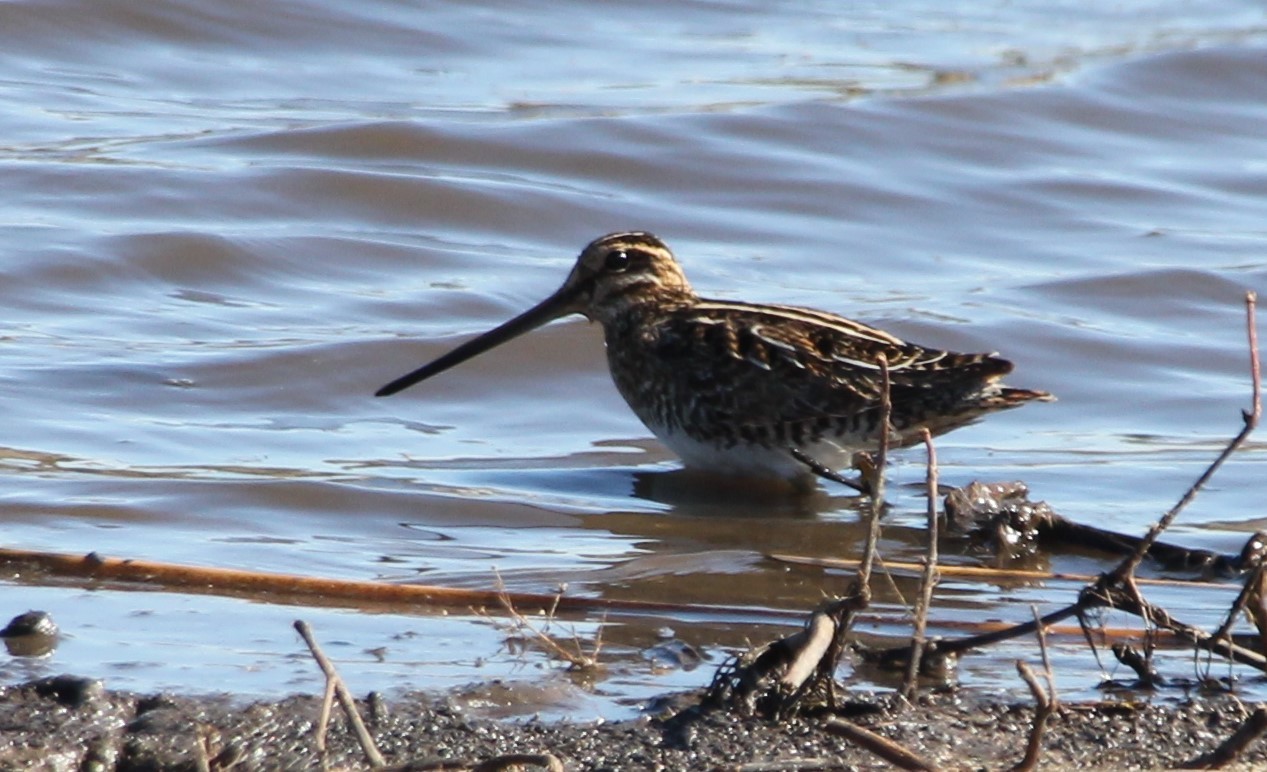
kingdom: Animalia
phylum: Chordata
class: Aves
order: Charadriiformes
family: Scolopacidae
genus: Gallinago
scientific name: Gallinago delicata
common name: Wilson's snipe
